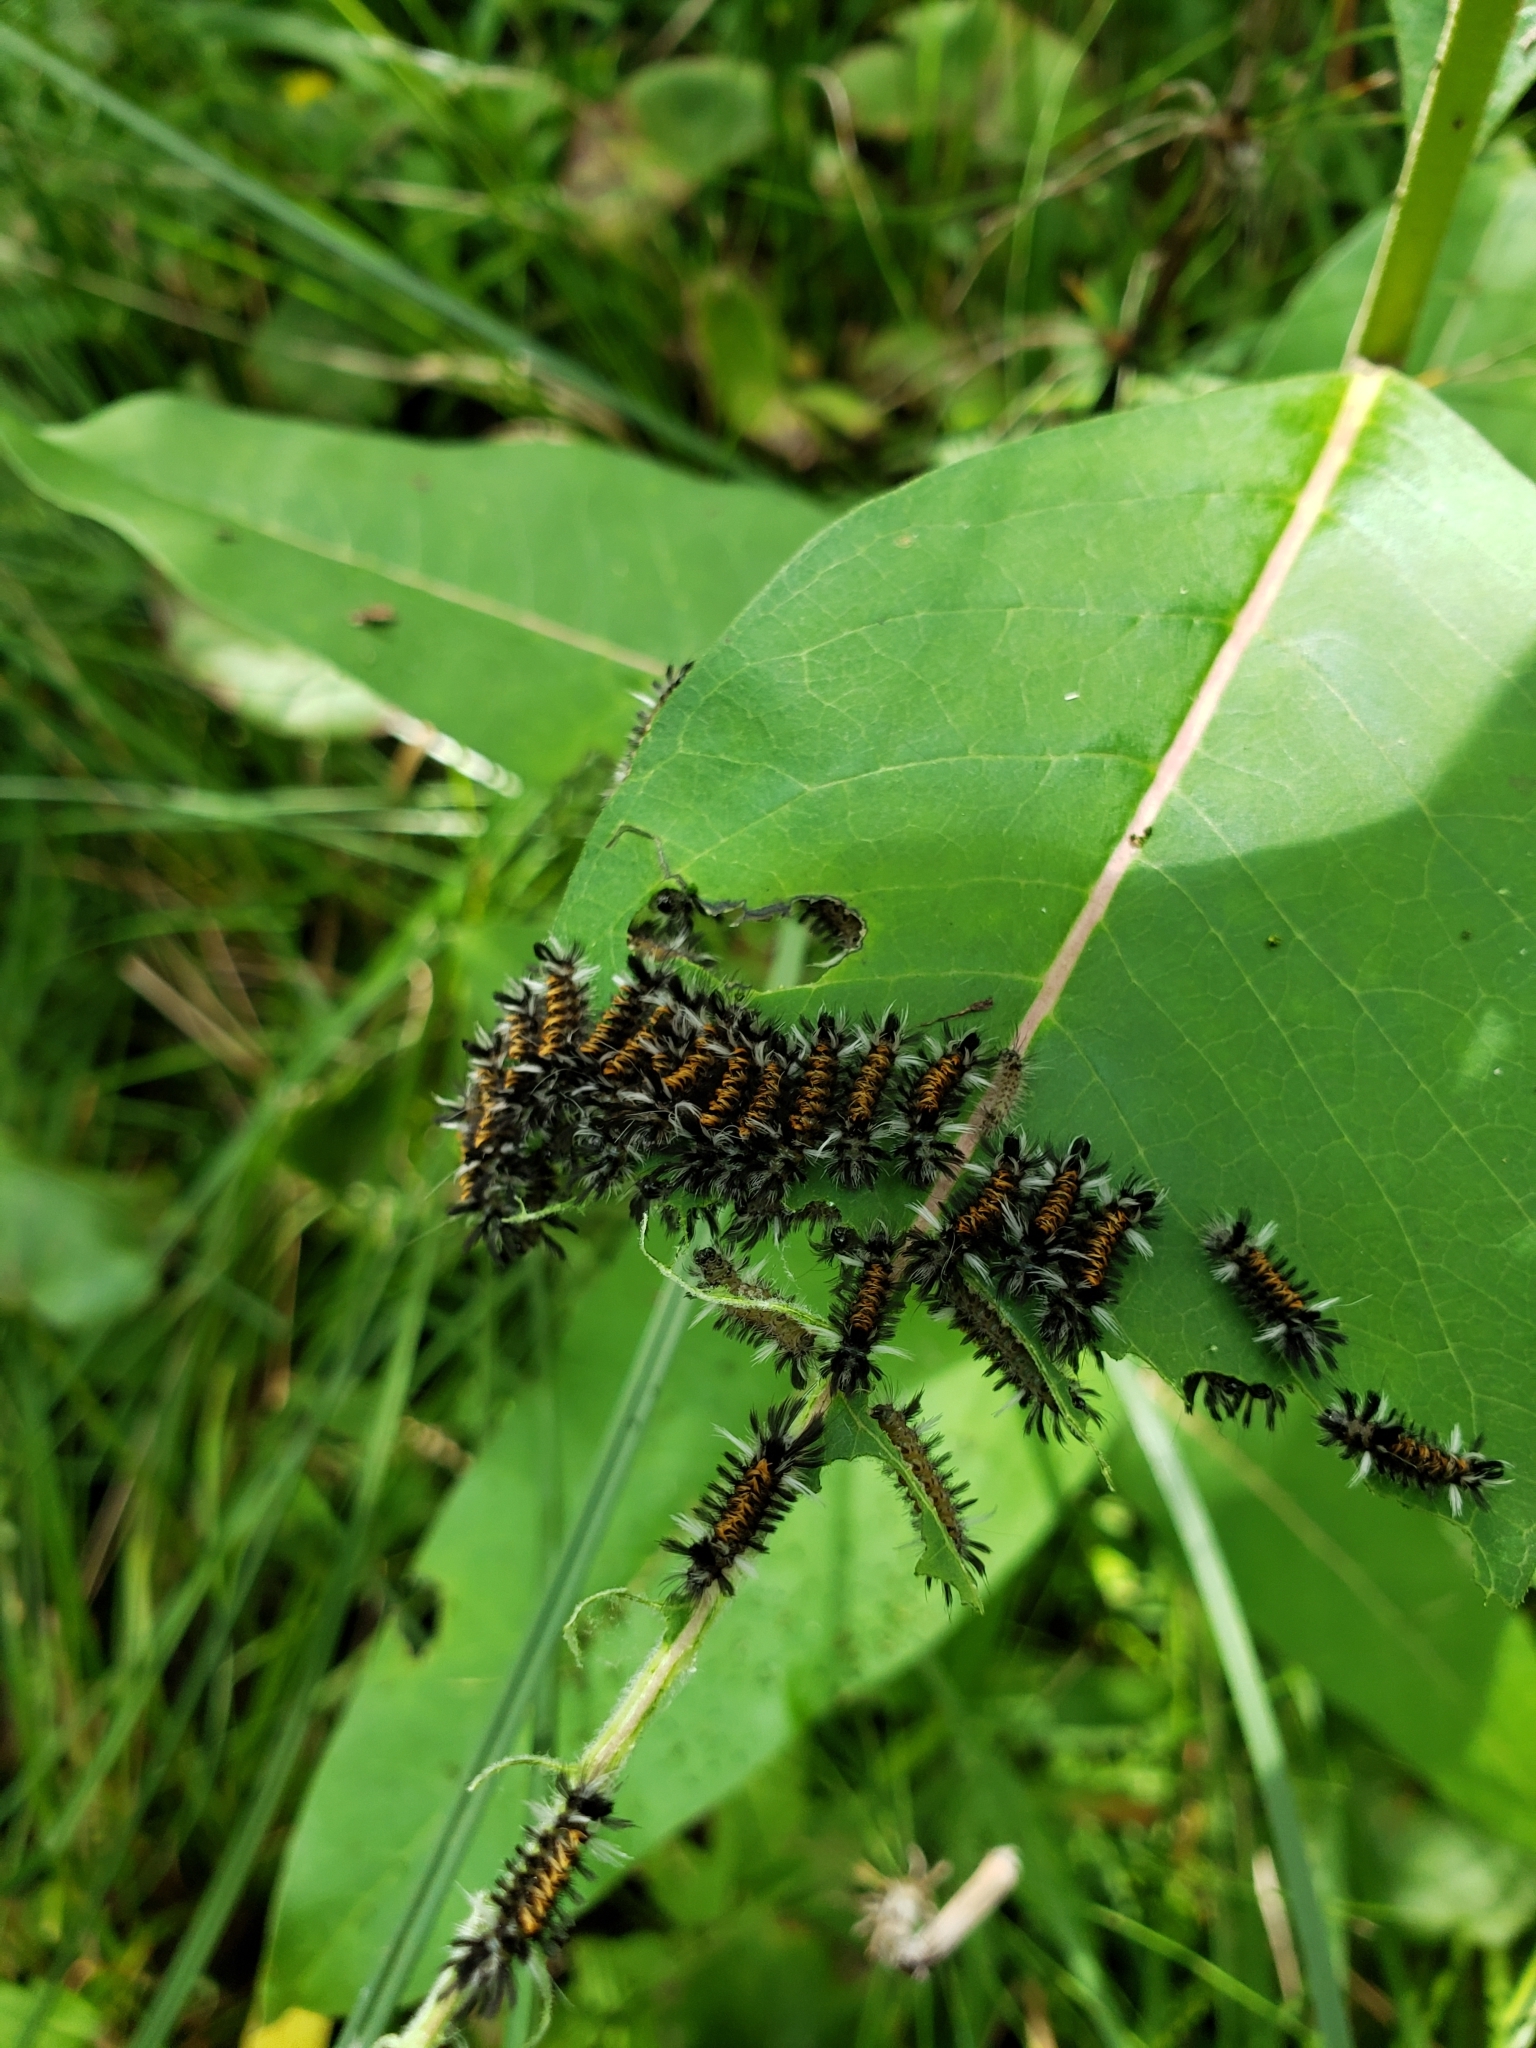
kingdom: Animalia
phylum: Arthropoda
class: Insecta
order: Lepidoptera
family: Erebidae
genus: Euchaetes
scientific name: Euchaetes egle
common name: Milkweed tussock moth
